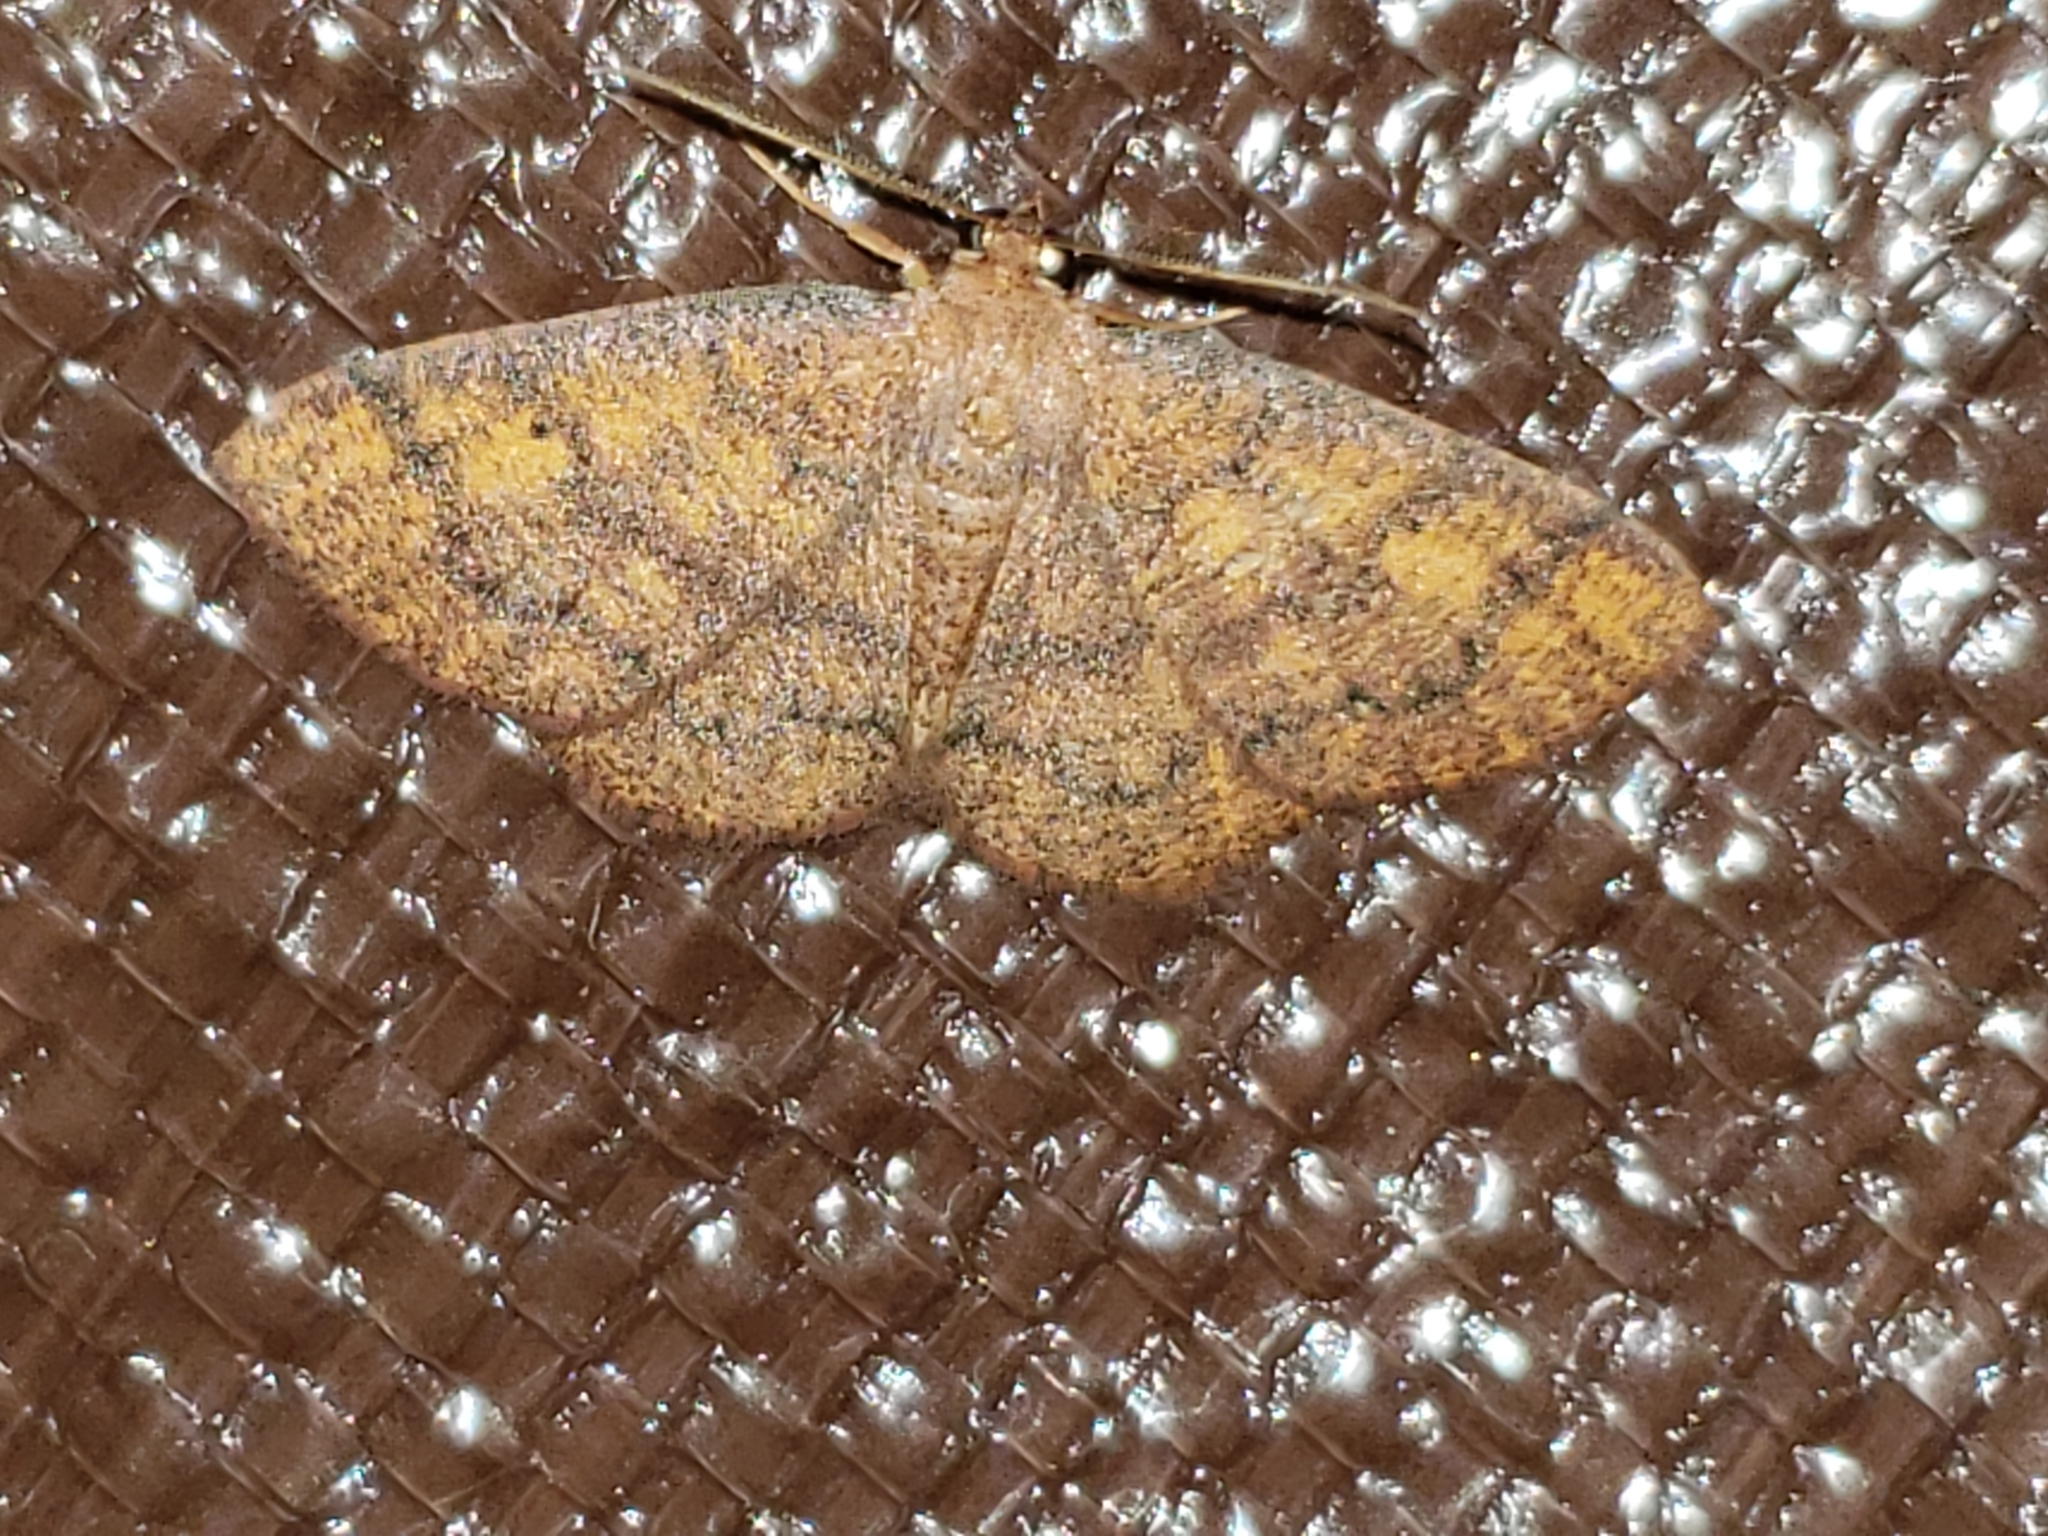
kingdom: Animalia
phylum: Arthropoda
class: Insecta
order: Lepidoptera
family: Geometridae
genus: Ilexia
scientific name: Ilexia intractata
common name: Black-dotted ruddy moth
